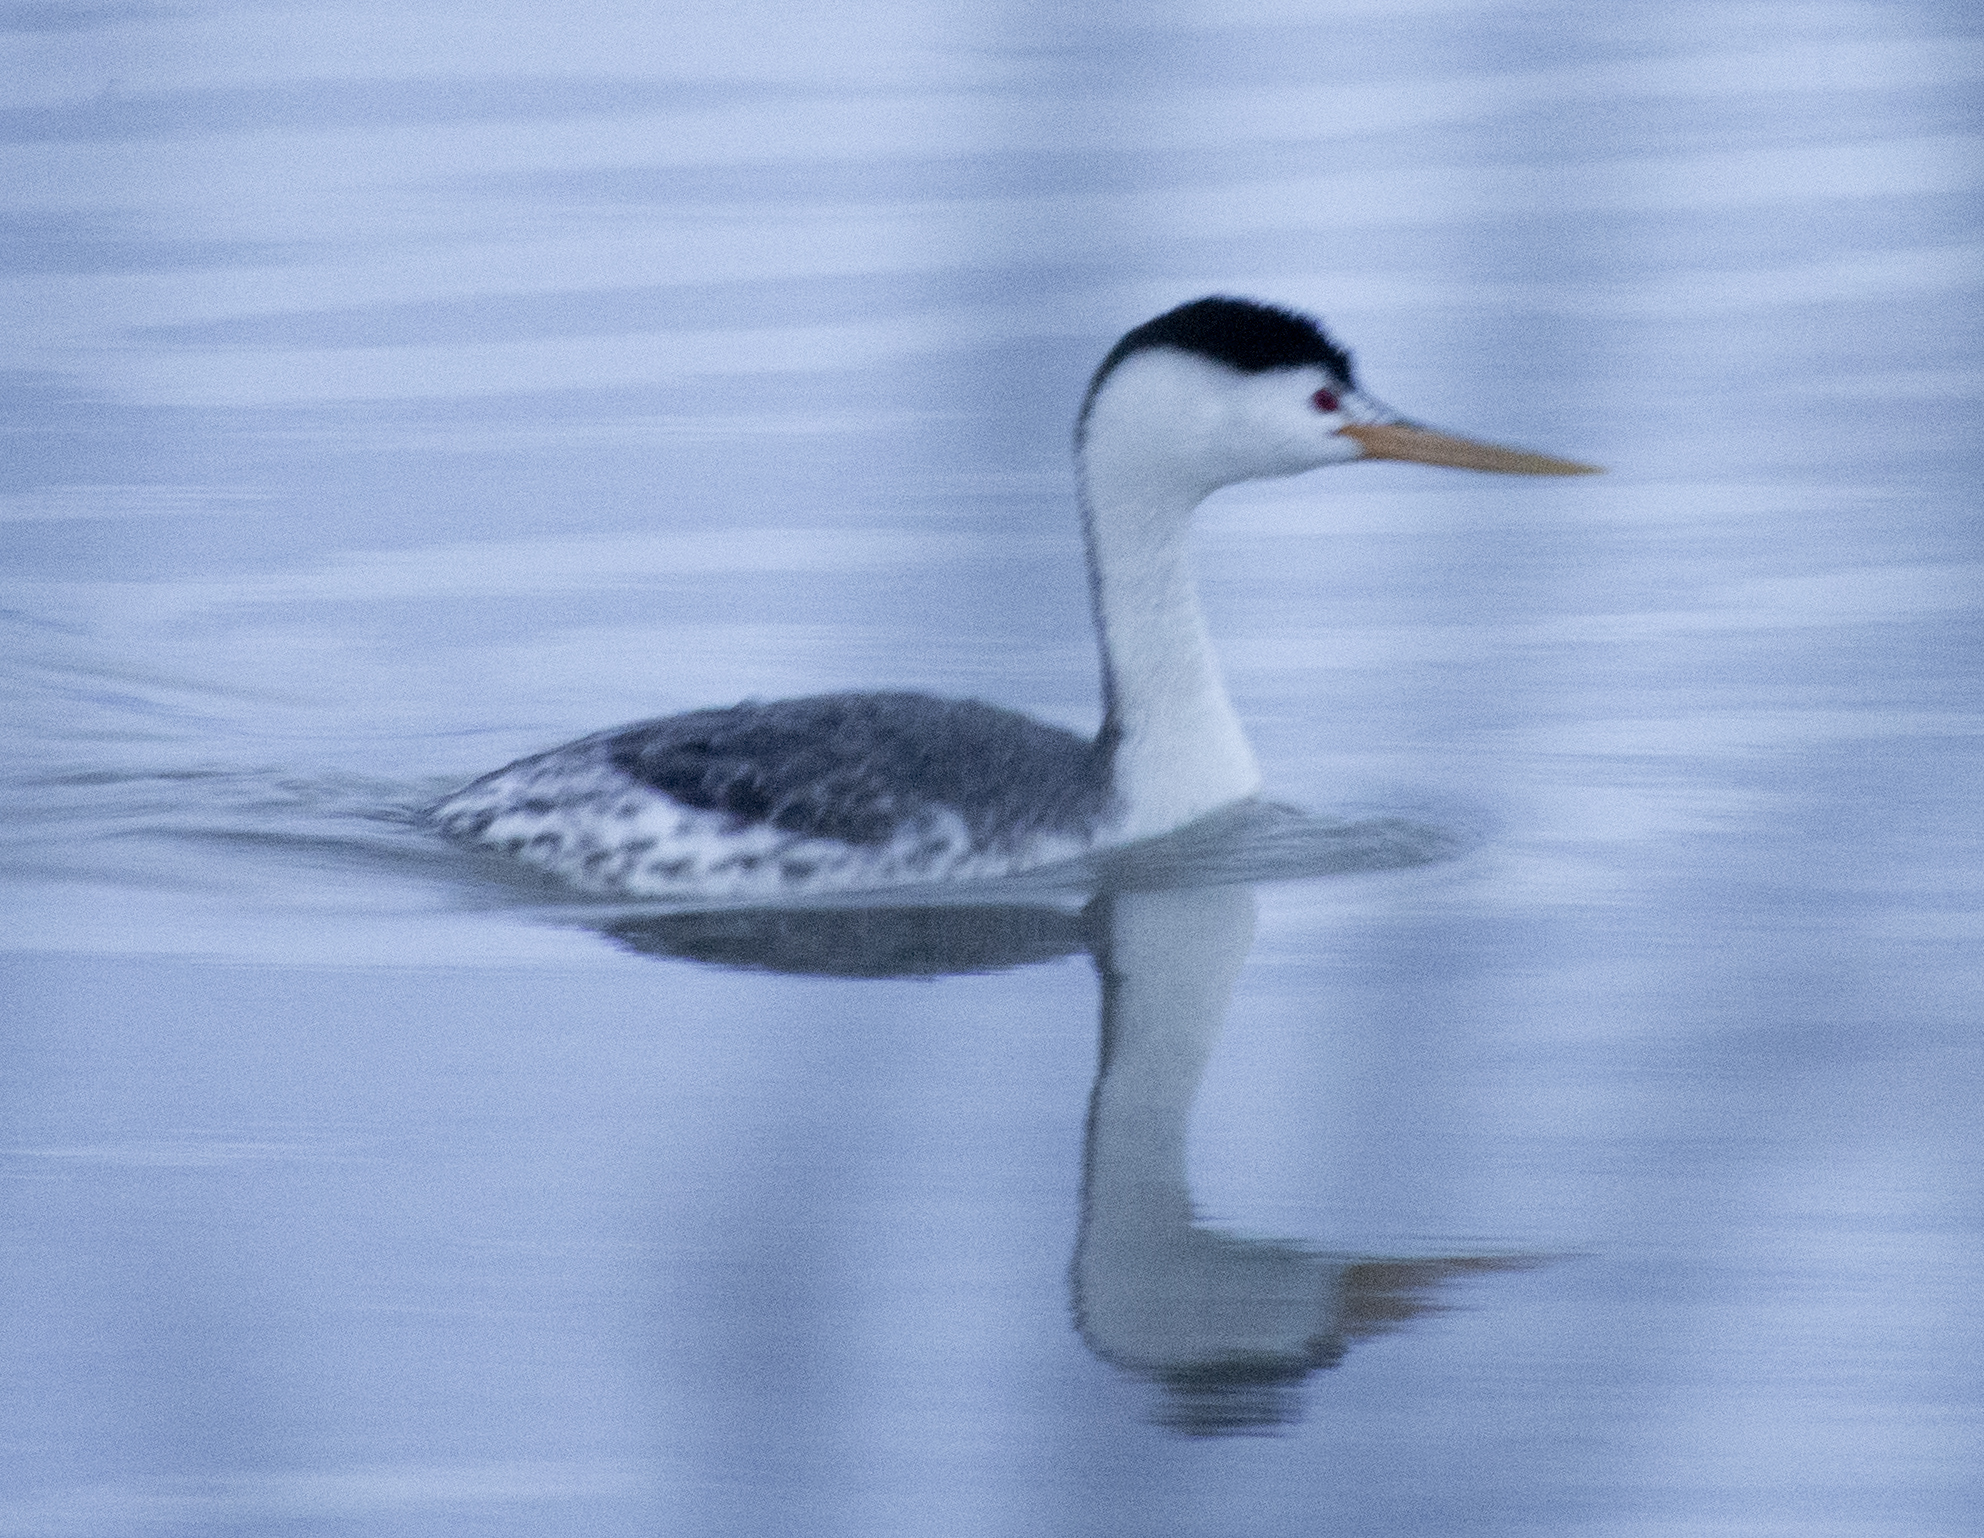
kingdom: Animalia
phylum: Chordata
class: Aves
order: Podicipediformes
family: Podicipedidae
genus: Aechmophorus
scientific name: Aechmophorus clarkii
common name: Clark's grebe
